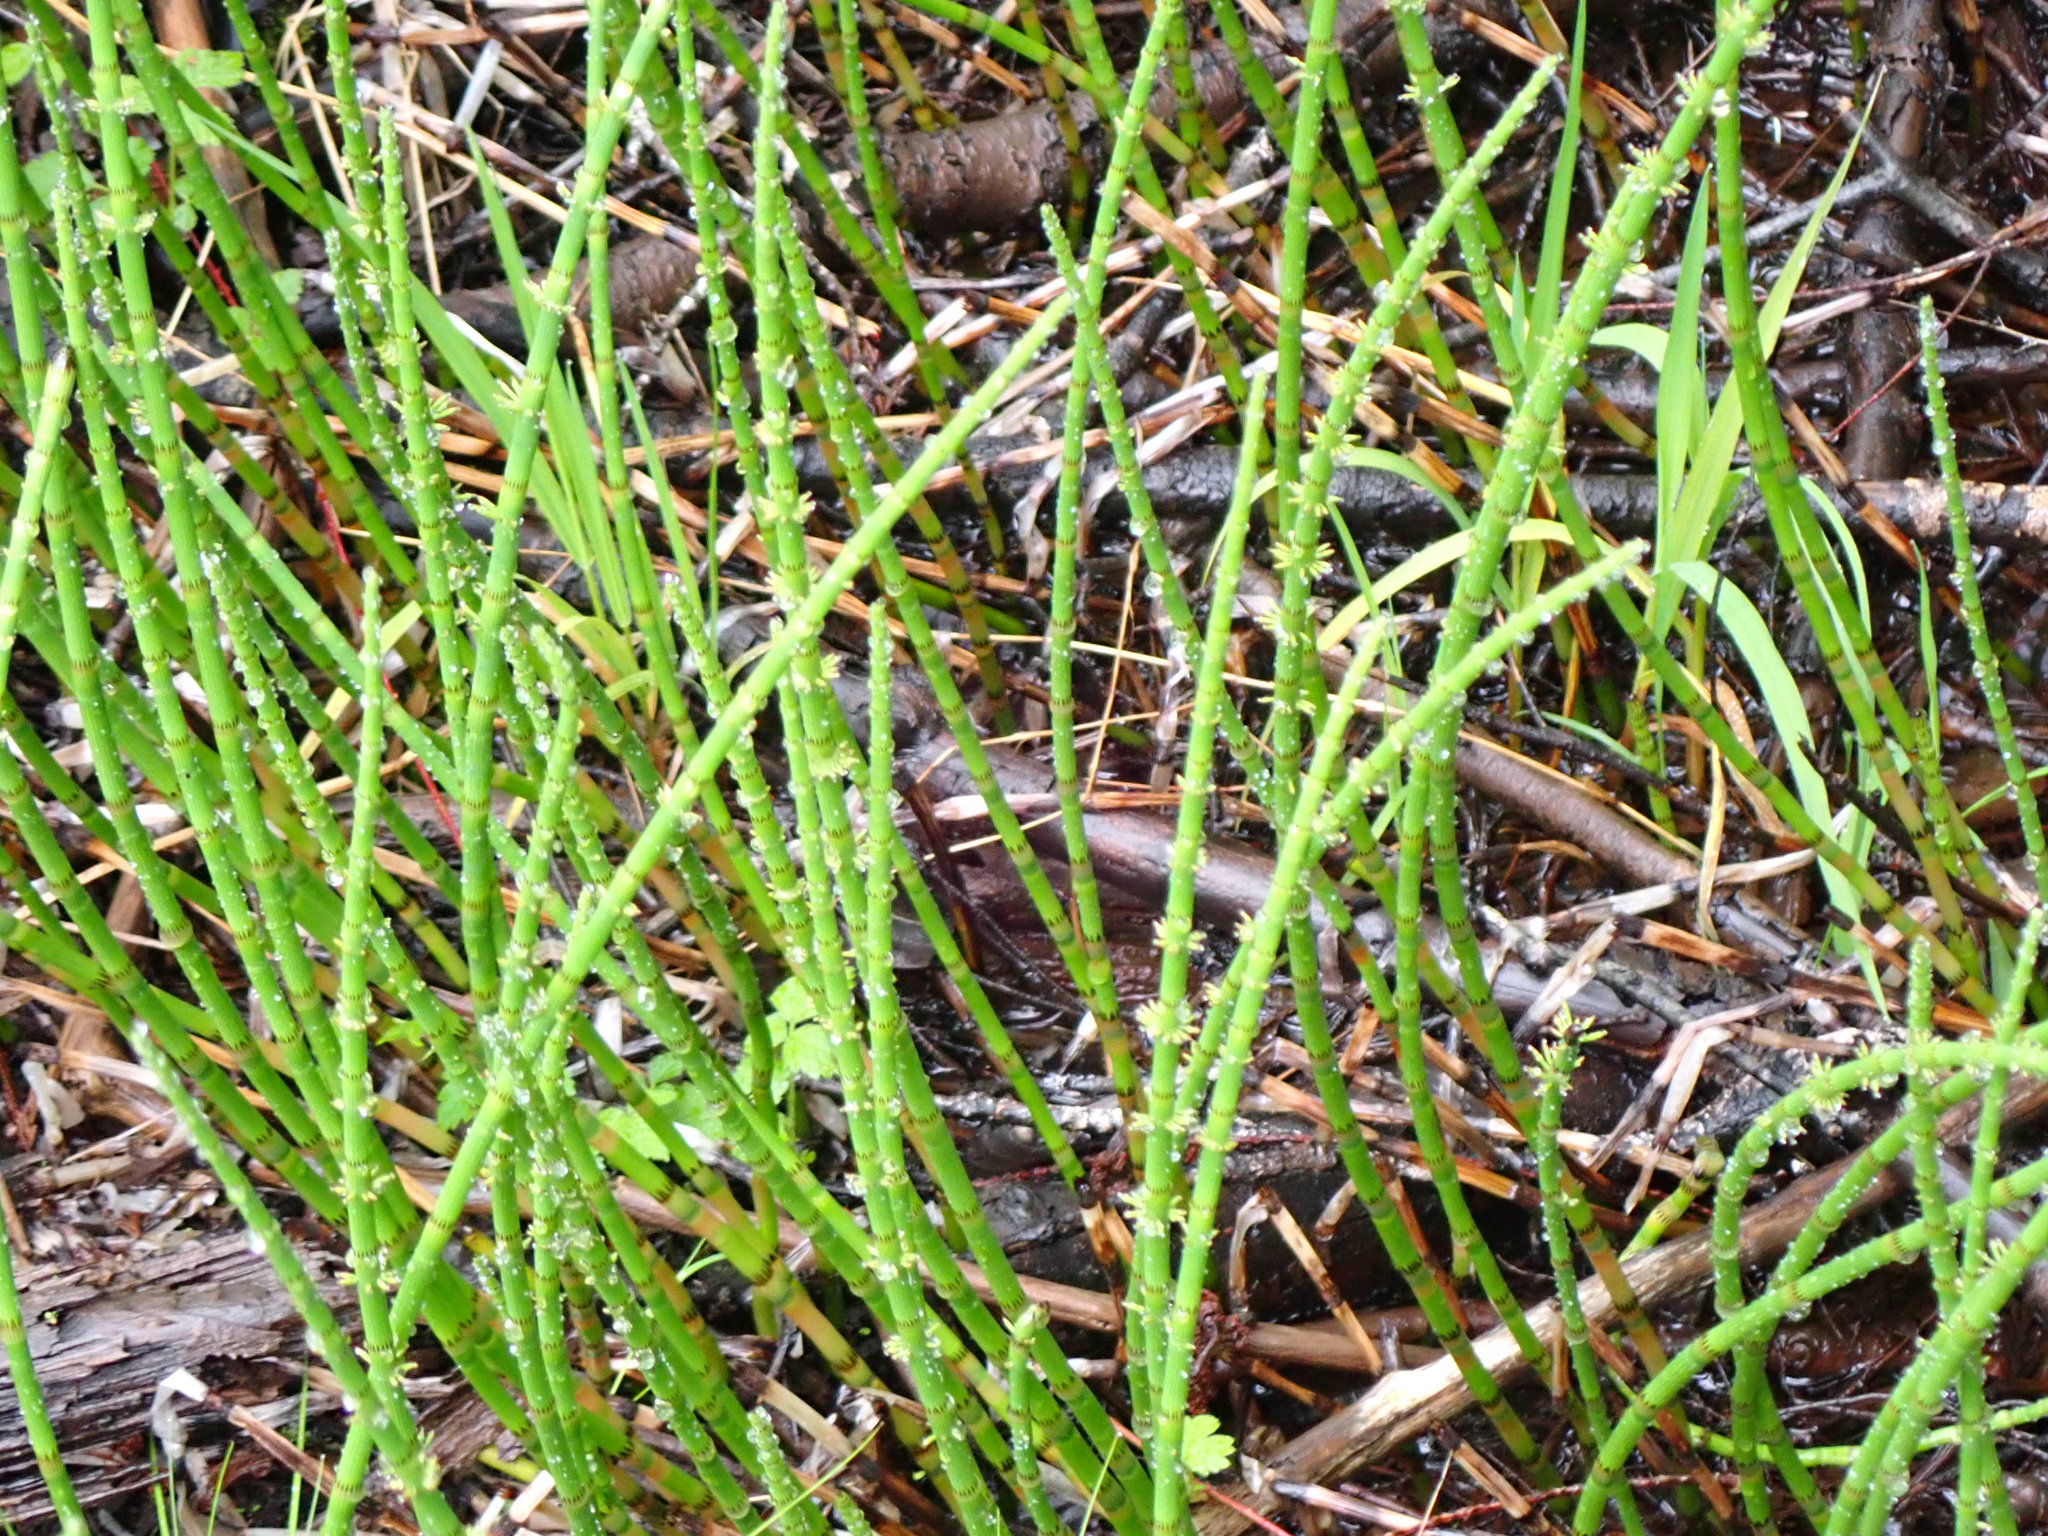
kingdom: Plantae
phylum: Tracheophyta
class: Polypodiopsida
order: Equisetales
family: Equisetaceae
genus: Equisetum
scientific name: Equisetum fluviatile
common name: Water horsetail
